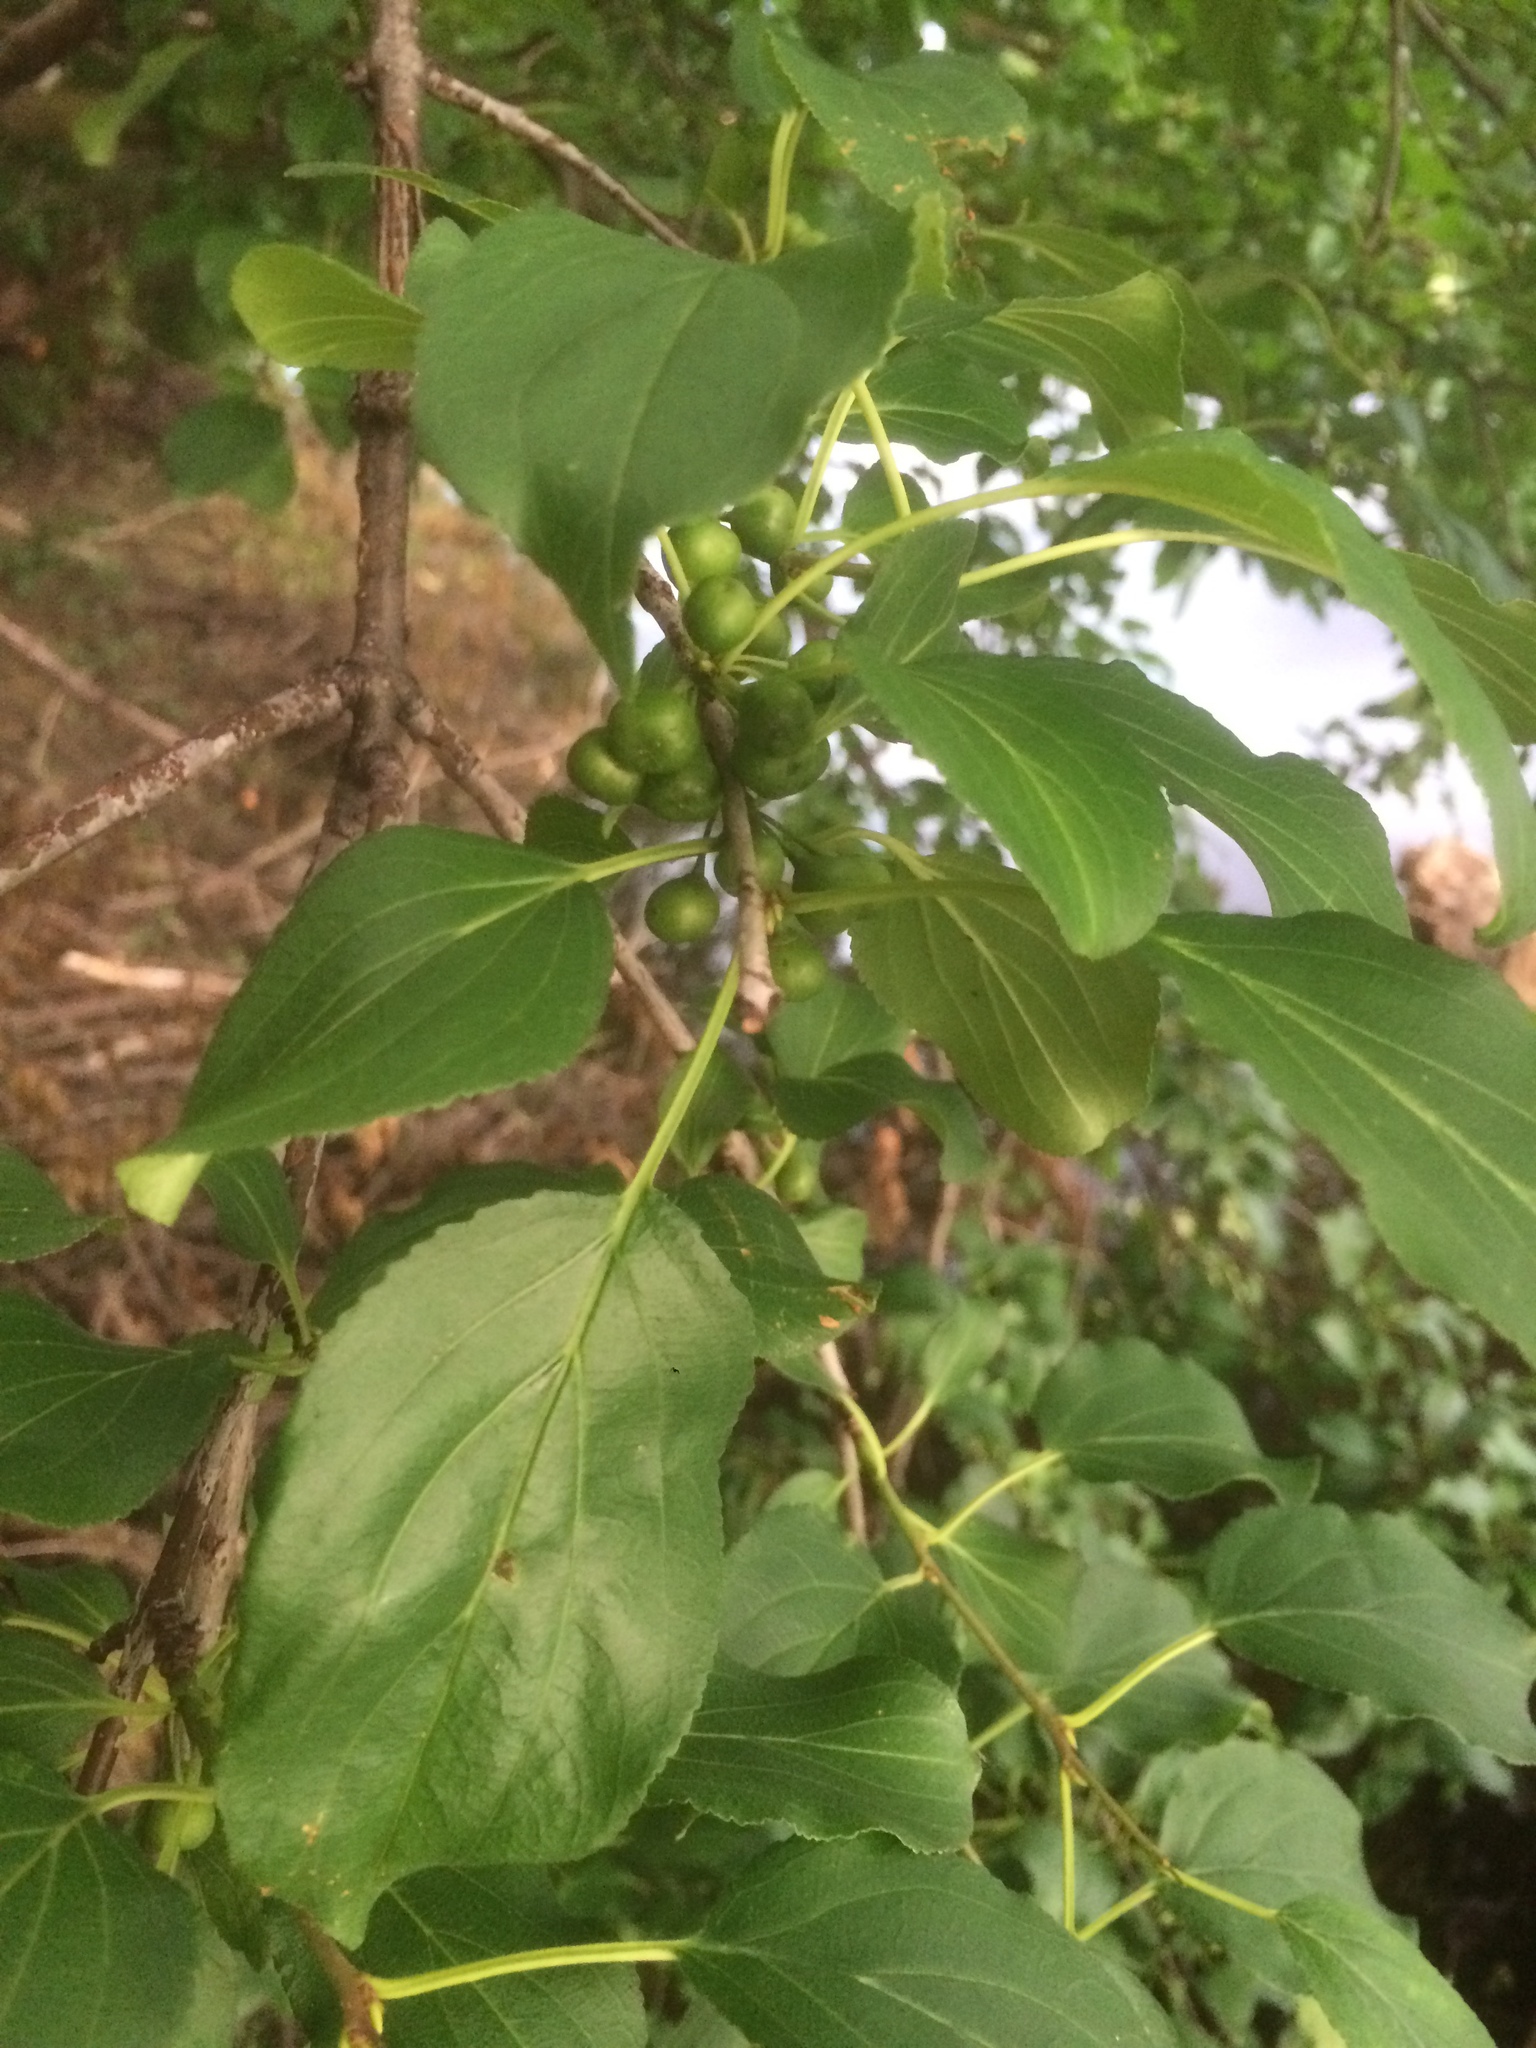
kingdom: Plantae
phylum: Tracheophyta
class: Magnoliopsida
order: Rosales
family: Rhamnaceae
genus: Rhamnus
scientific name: Rhamnus cathartica
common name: Common buckthorn
